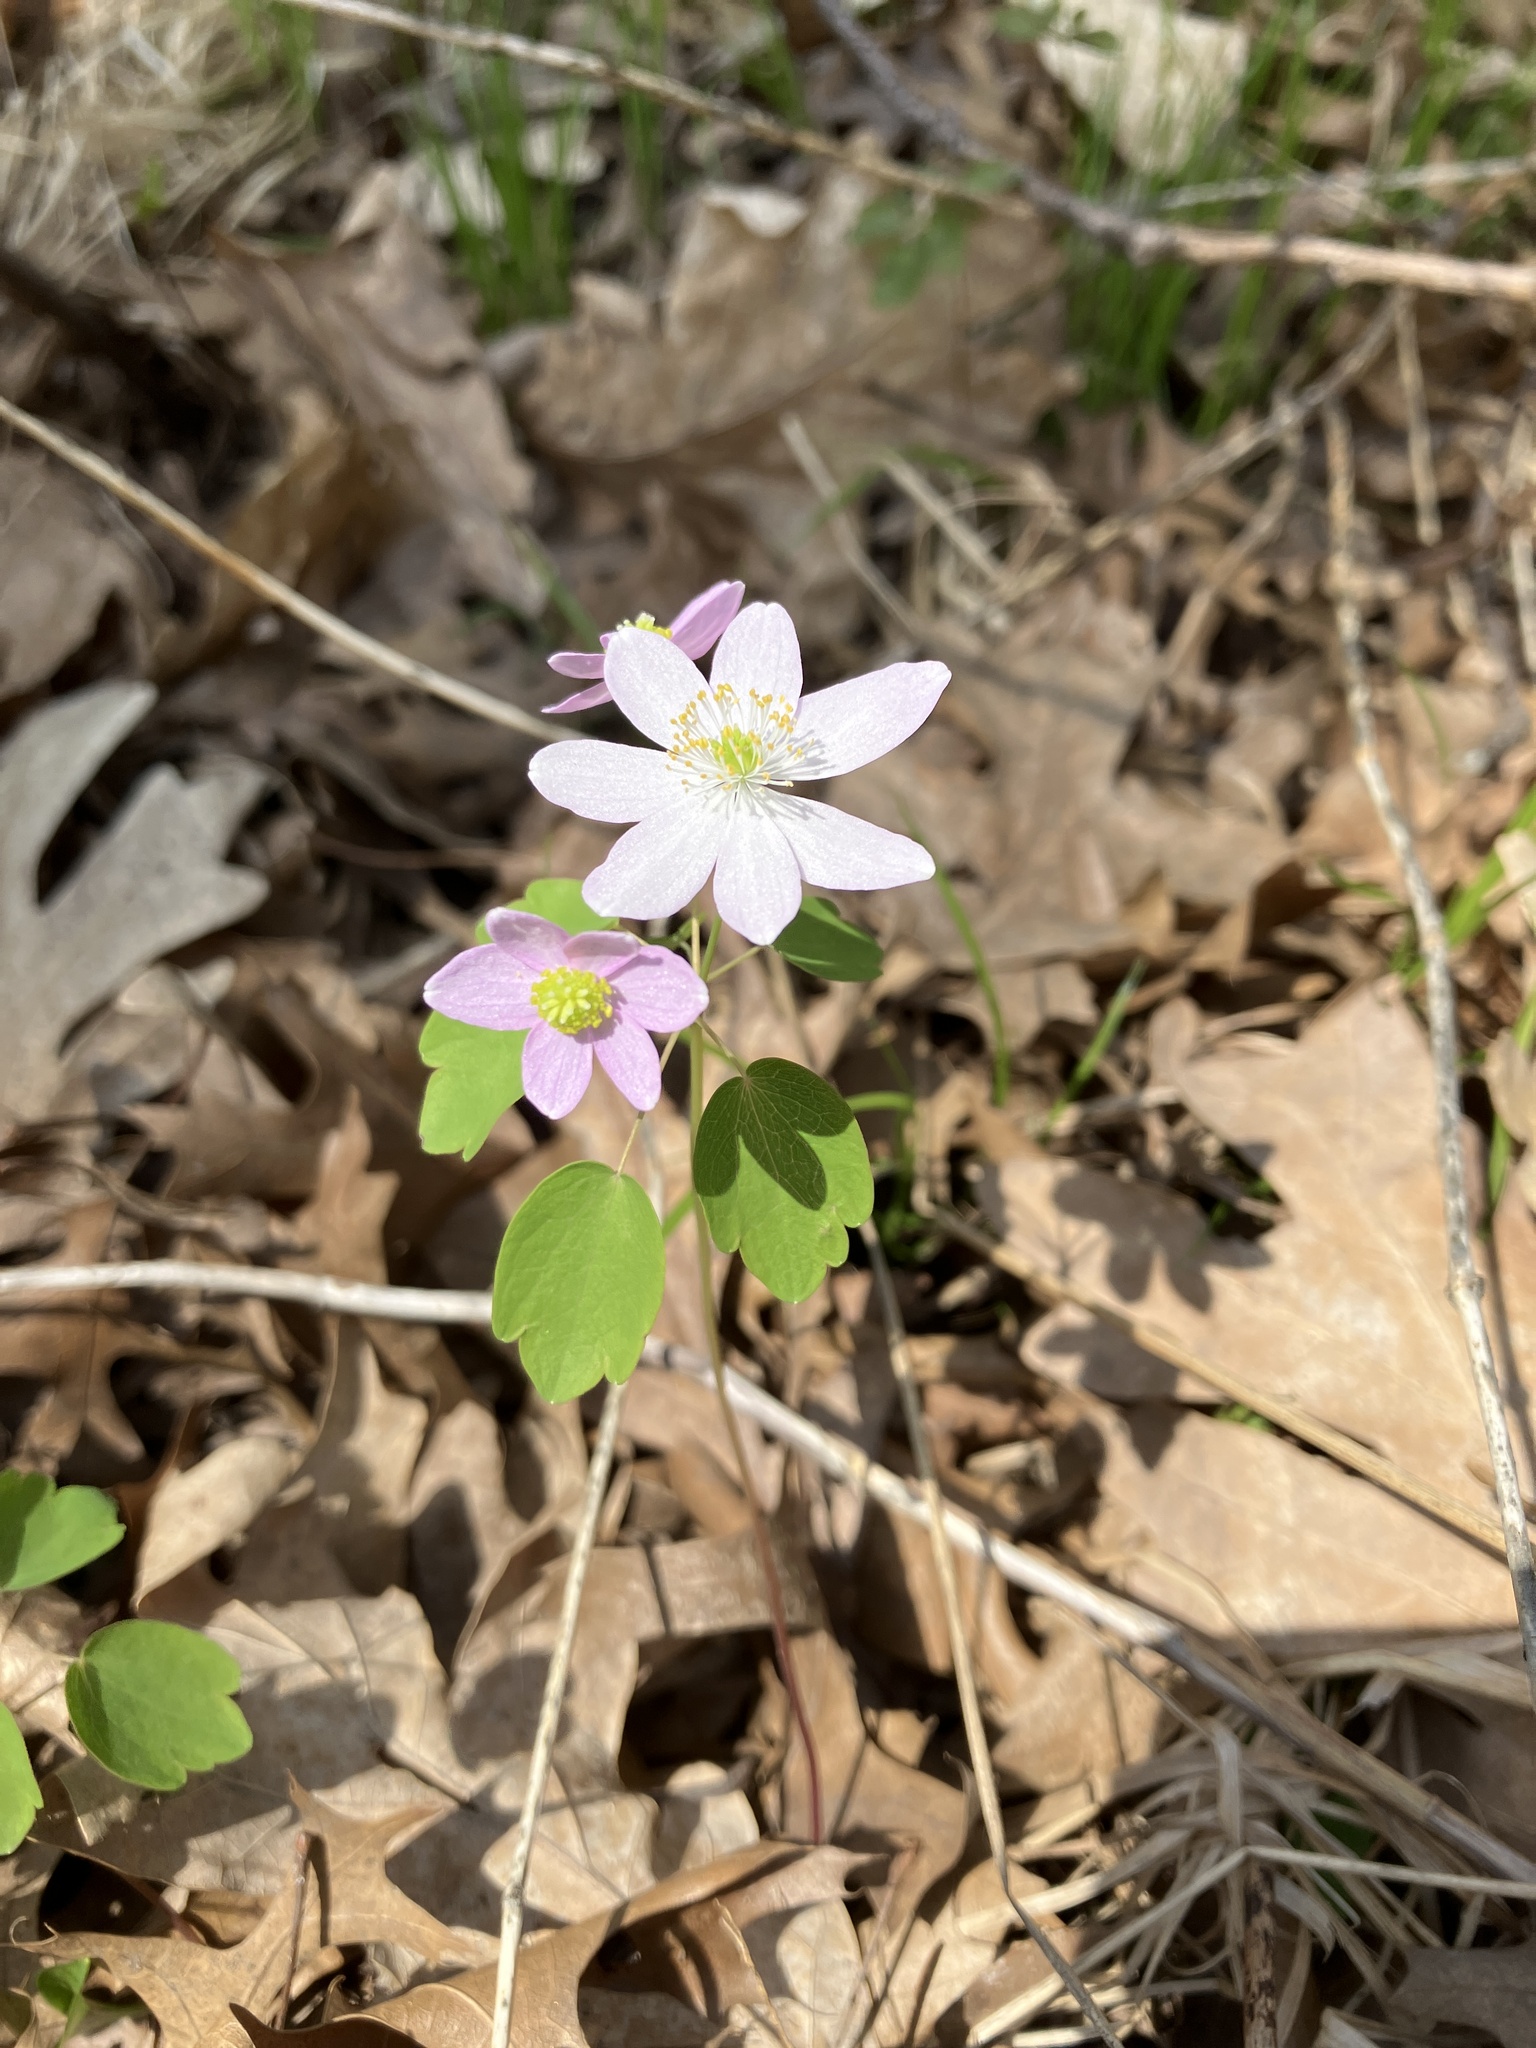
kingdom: Plantae
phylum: Tracheophyta
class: Magnoliopsida
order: Ranunculales
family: Ranunculaceae
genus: Thalictrum
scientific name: Thalictrum thalictroides
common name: Rue-anemone
